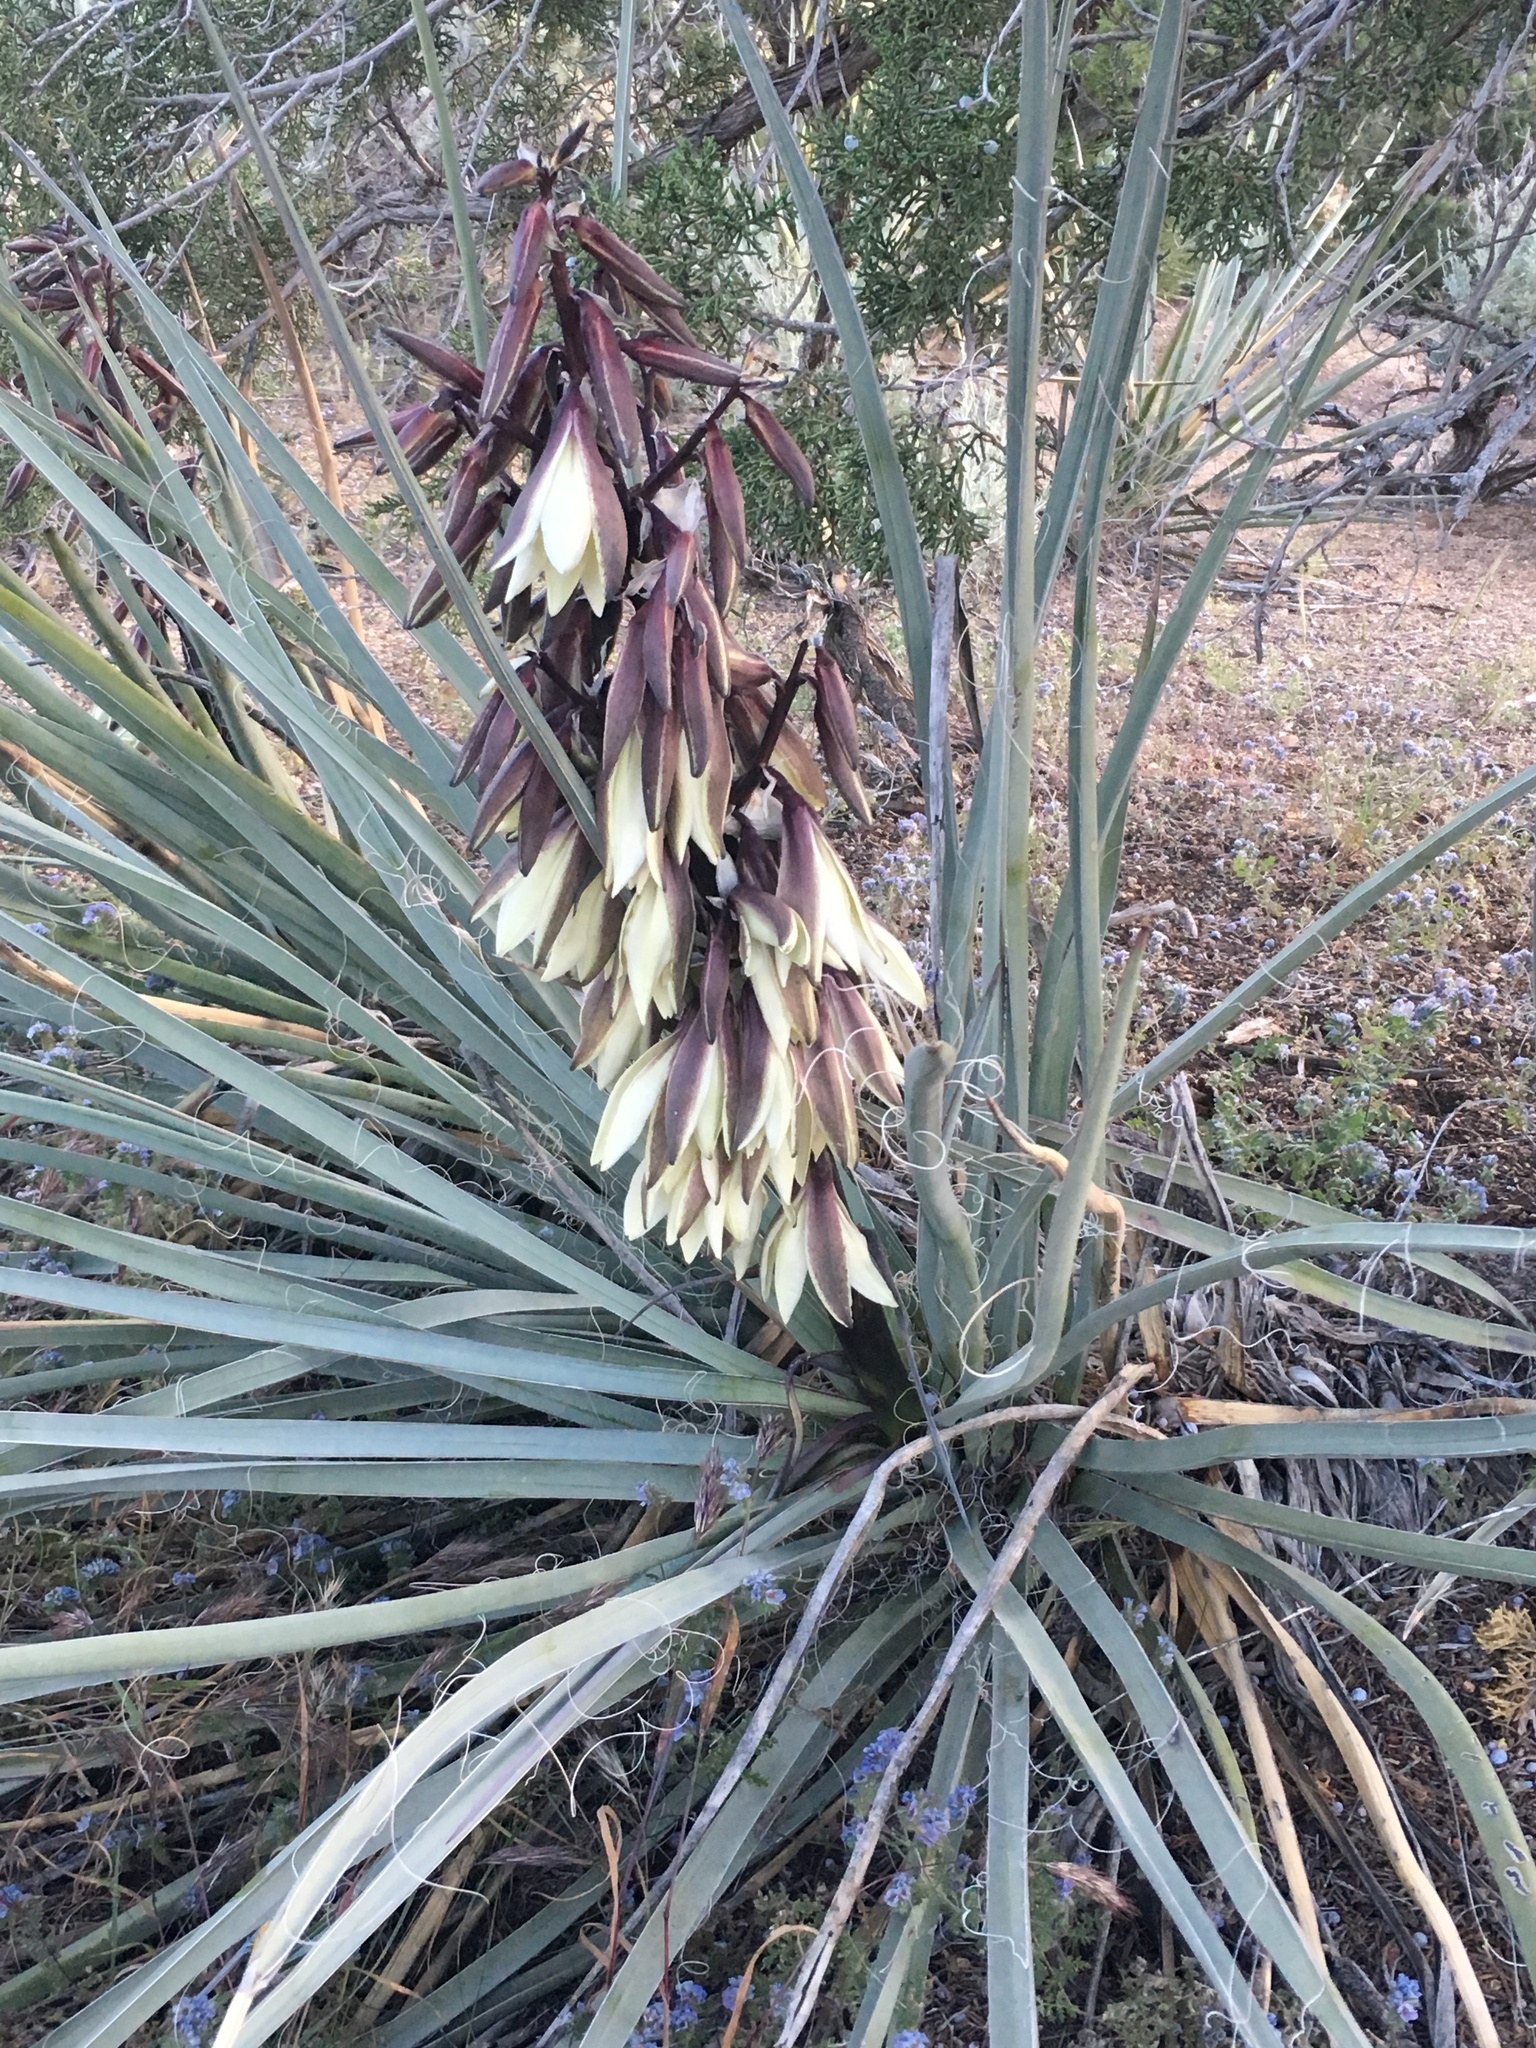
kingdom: Plantae
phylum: Tracheophyta
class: Liliopsida
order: Asparagales
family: Asparagaceae
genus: Yucca
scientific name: Yucca baccata
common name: Banana yucca
